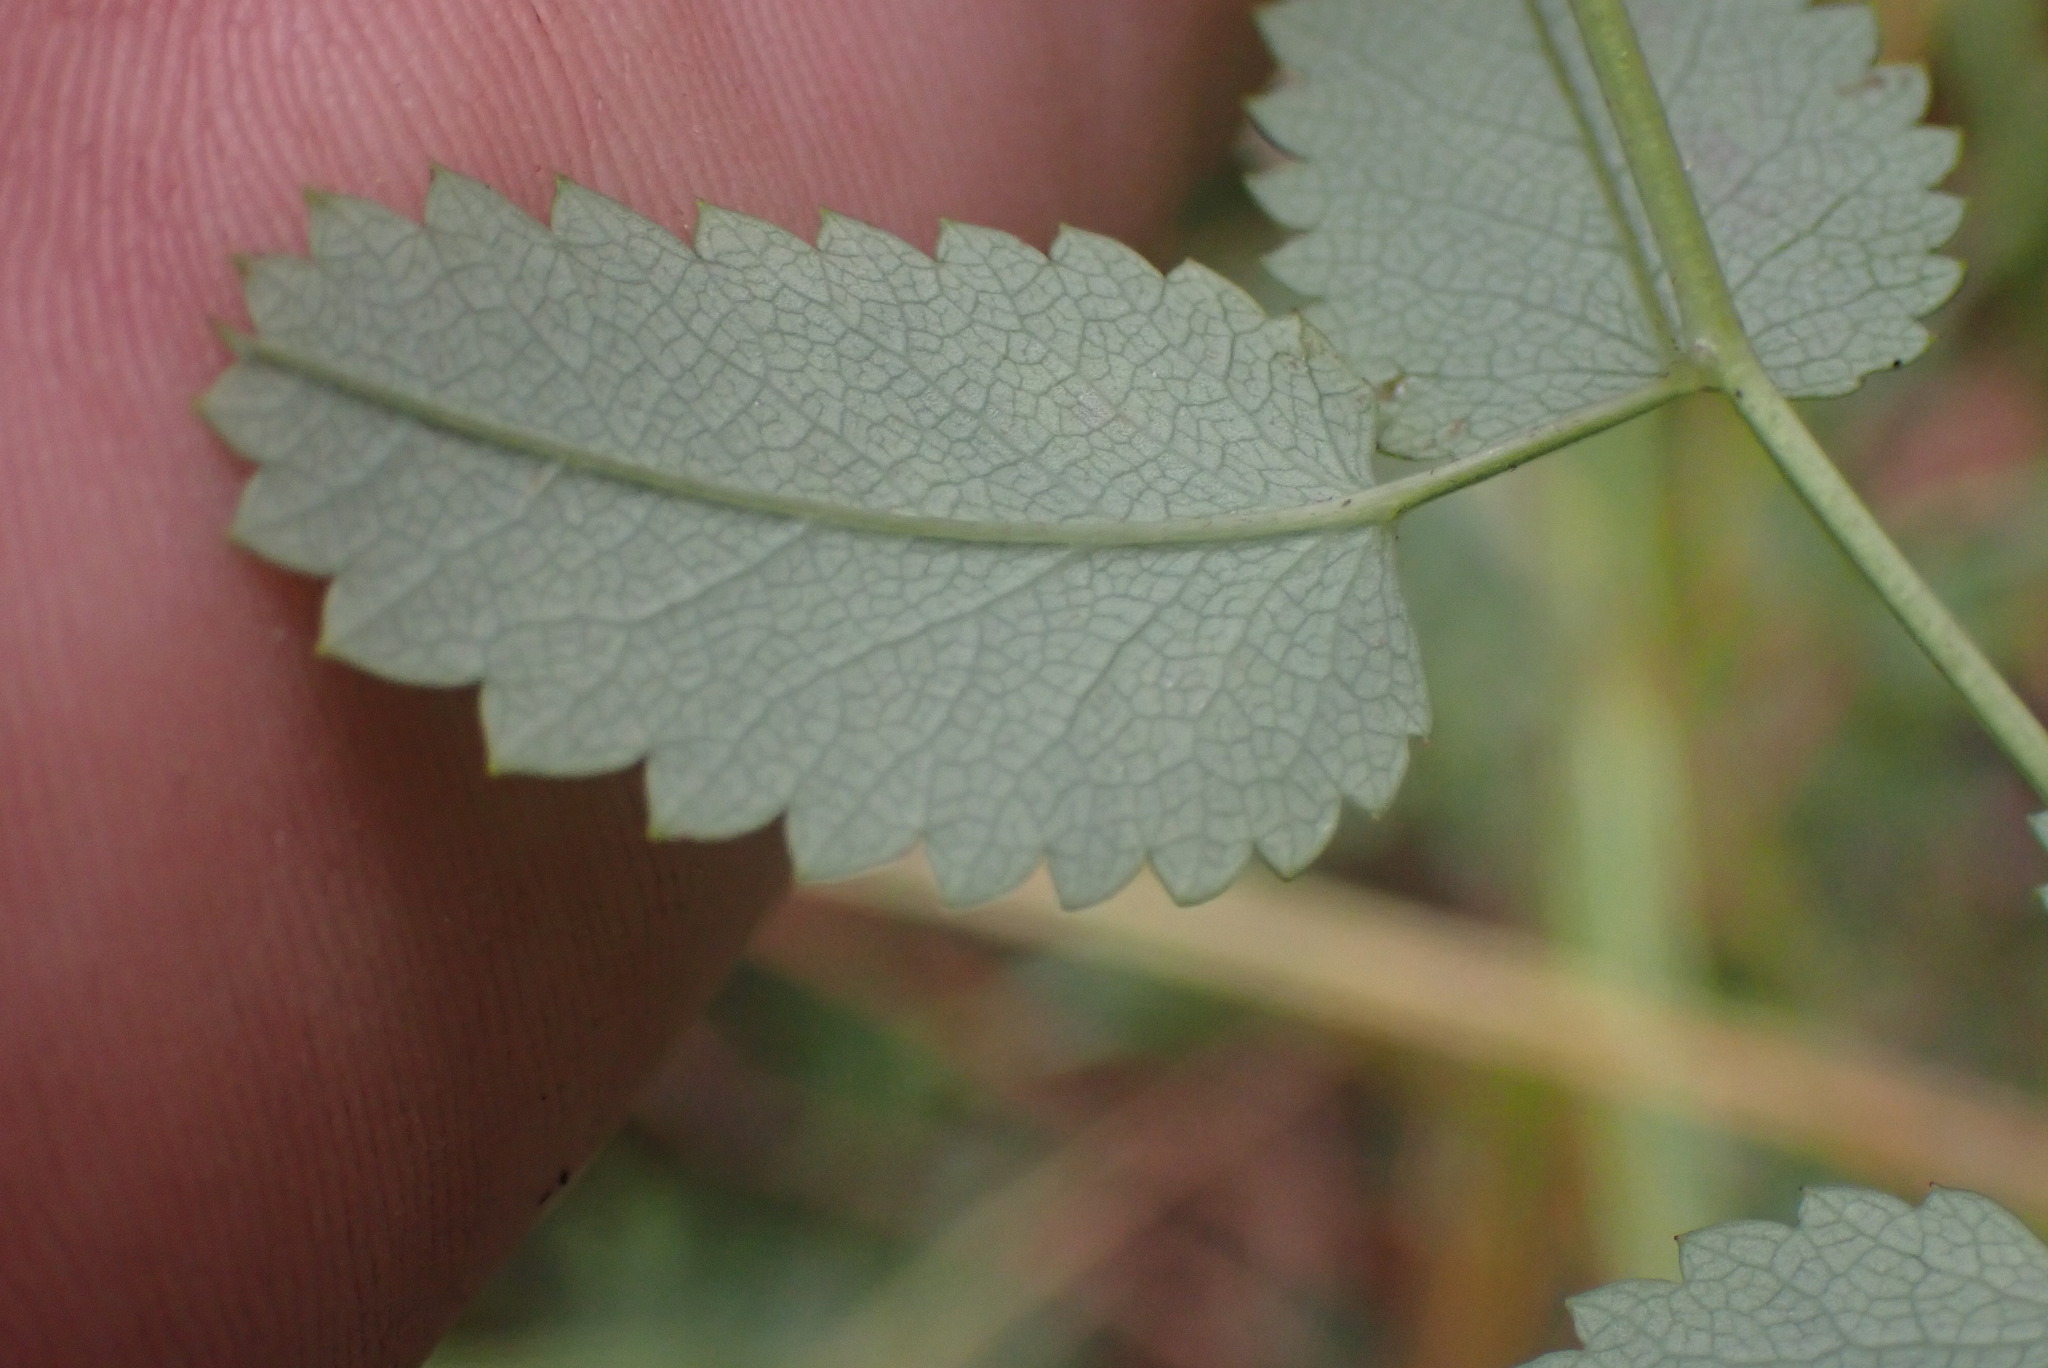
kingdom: Plantae
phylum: Tracheophyta
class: Magnoliopsida
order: Rosales
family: Rosaceae
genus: Sanguisorba
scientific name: Sanguisorba officinalis
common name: Great burnet
